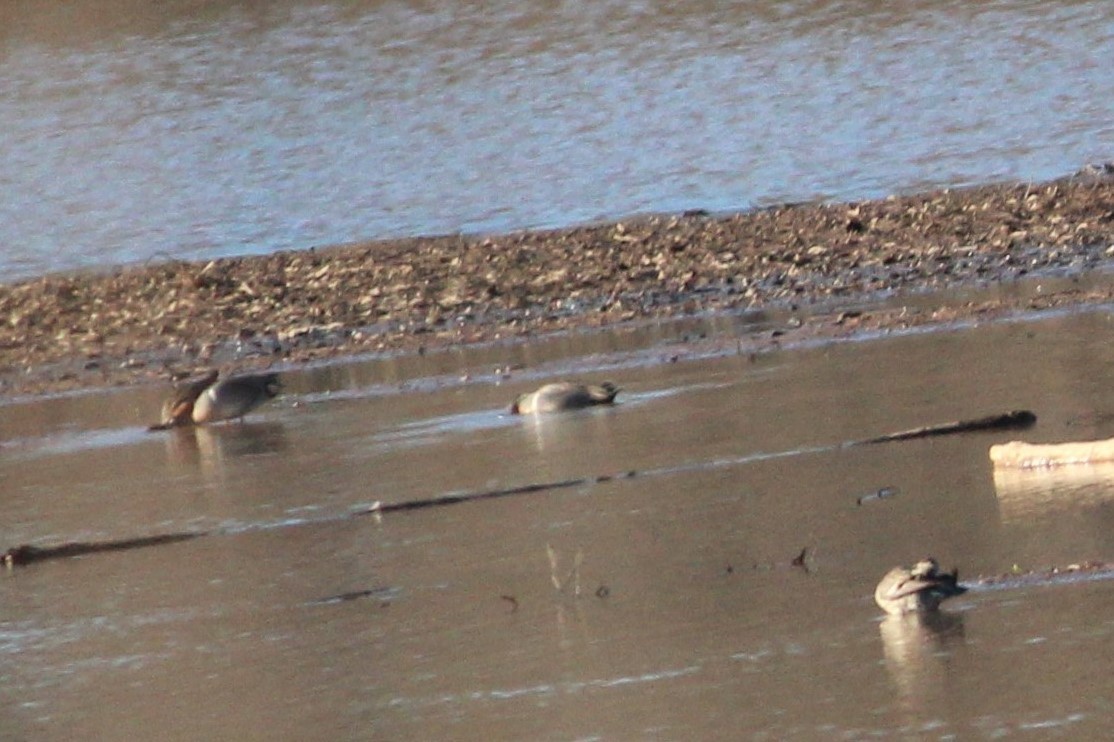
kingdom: Animalia
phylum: Chordata
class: Aves
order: Anseriformes
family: Anatidae
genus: Anas
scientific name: Anas crecca
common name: Eurasian teal
